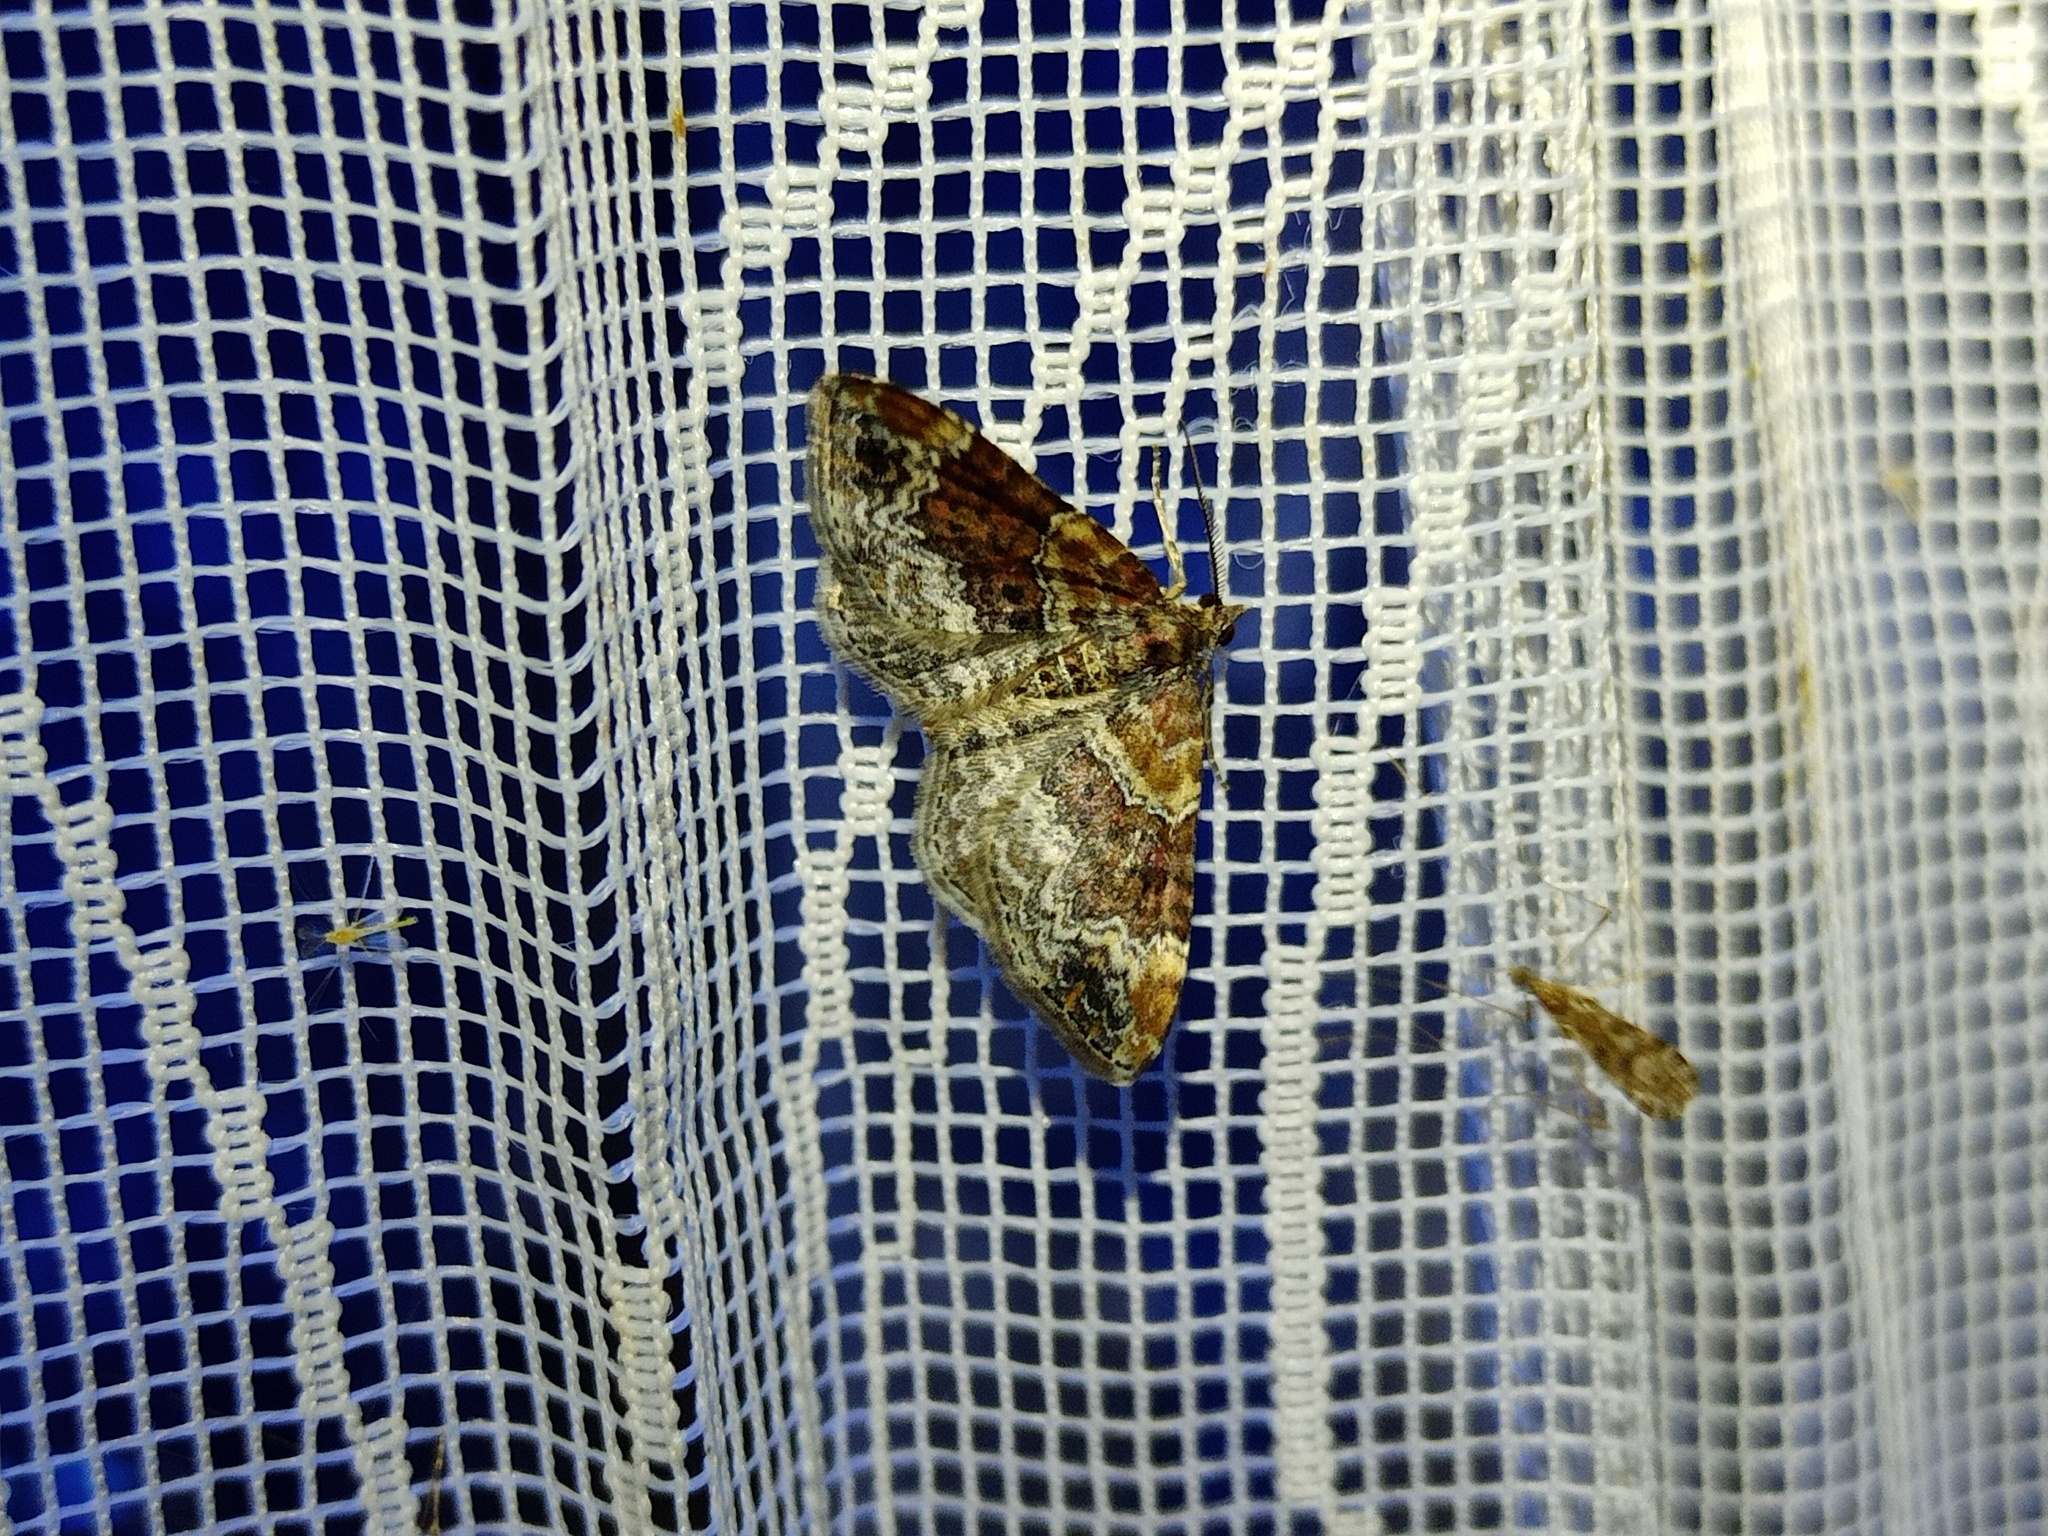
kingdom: Animalia
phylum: Arthropoda
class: Insecta
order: Lepidoptera
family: Geometridae
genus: Xanthorhoe
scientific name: Xanthorhoe spadicearia
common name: Red twin-spot carpet
